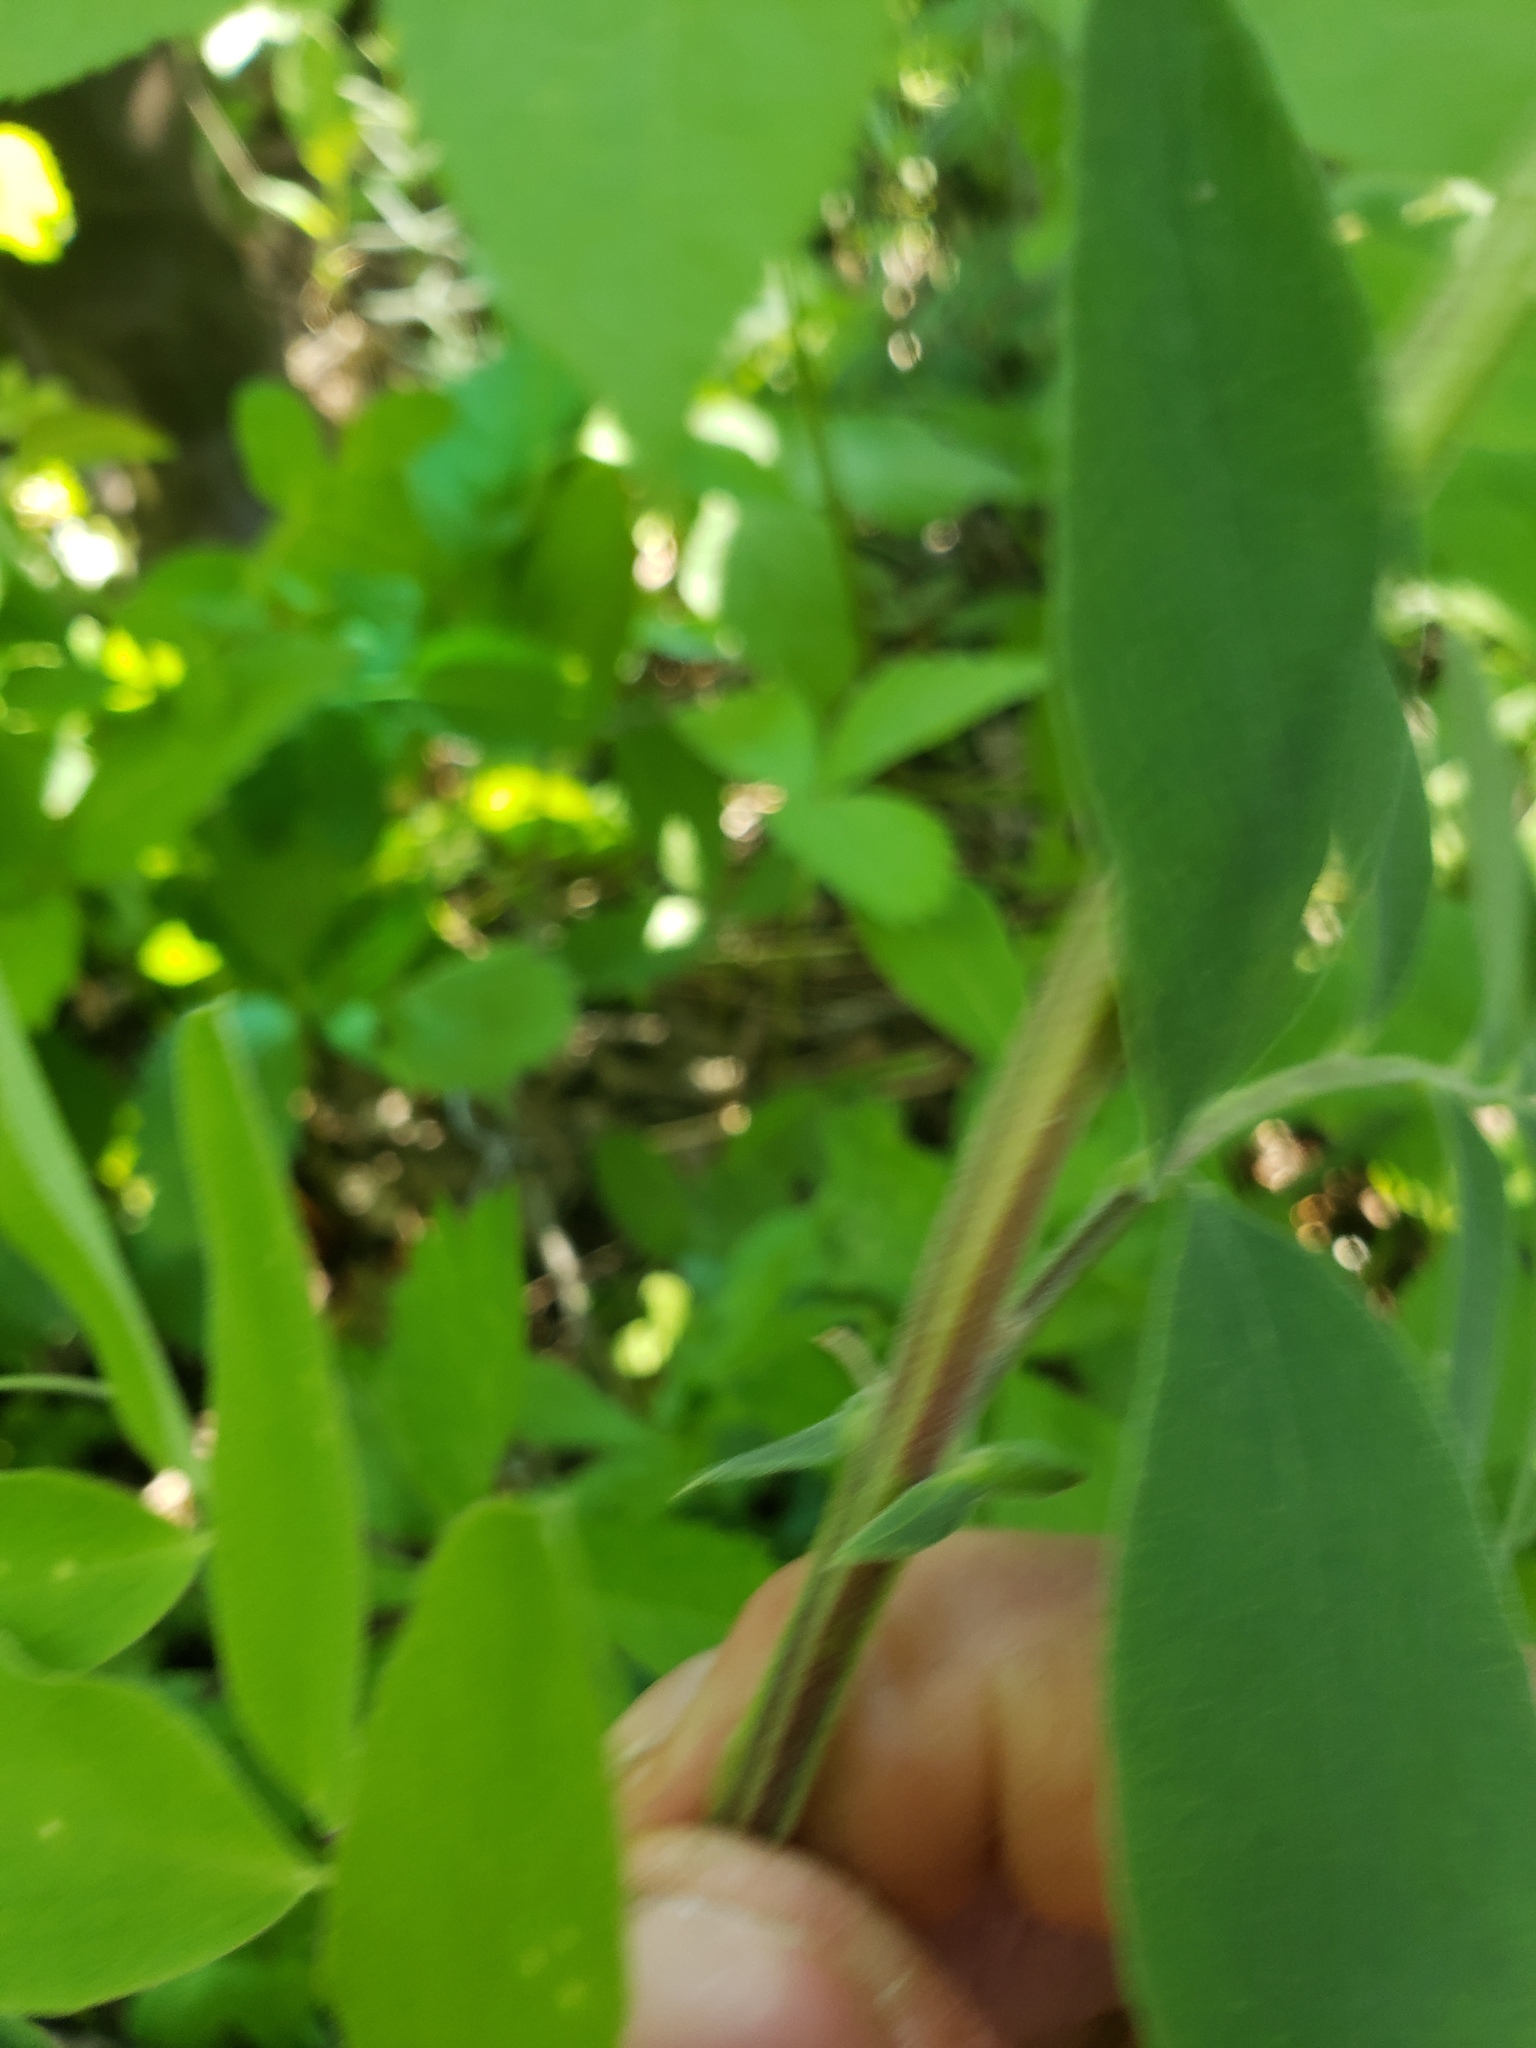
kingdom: Plantae
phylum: Tracheophyta
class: Magnoliopsida
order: Fabales
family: Fabaceae
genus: Lathyrus
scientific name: Lathyrus venosus
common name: Forest-pea
